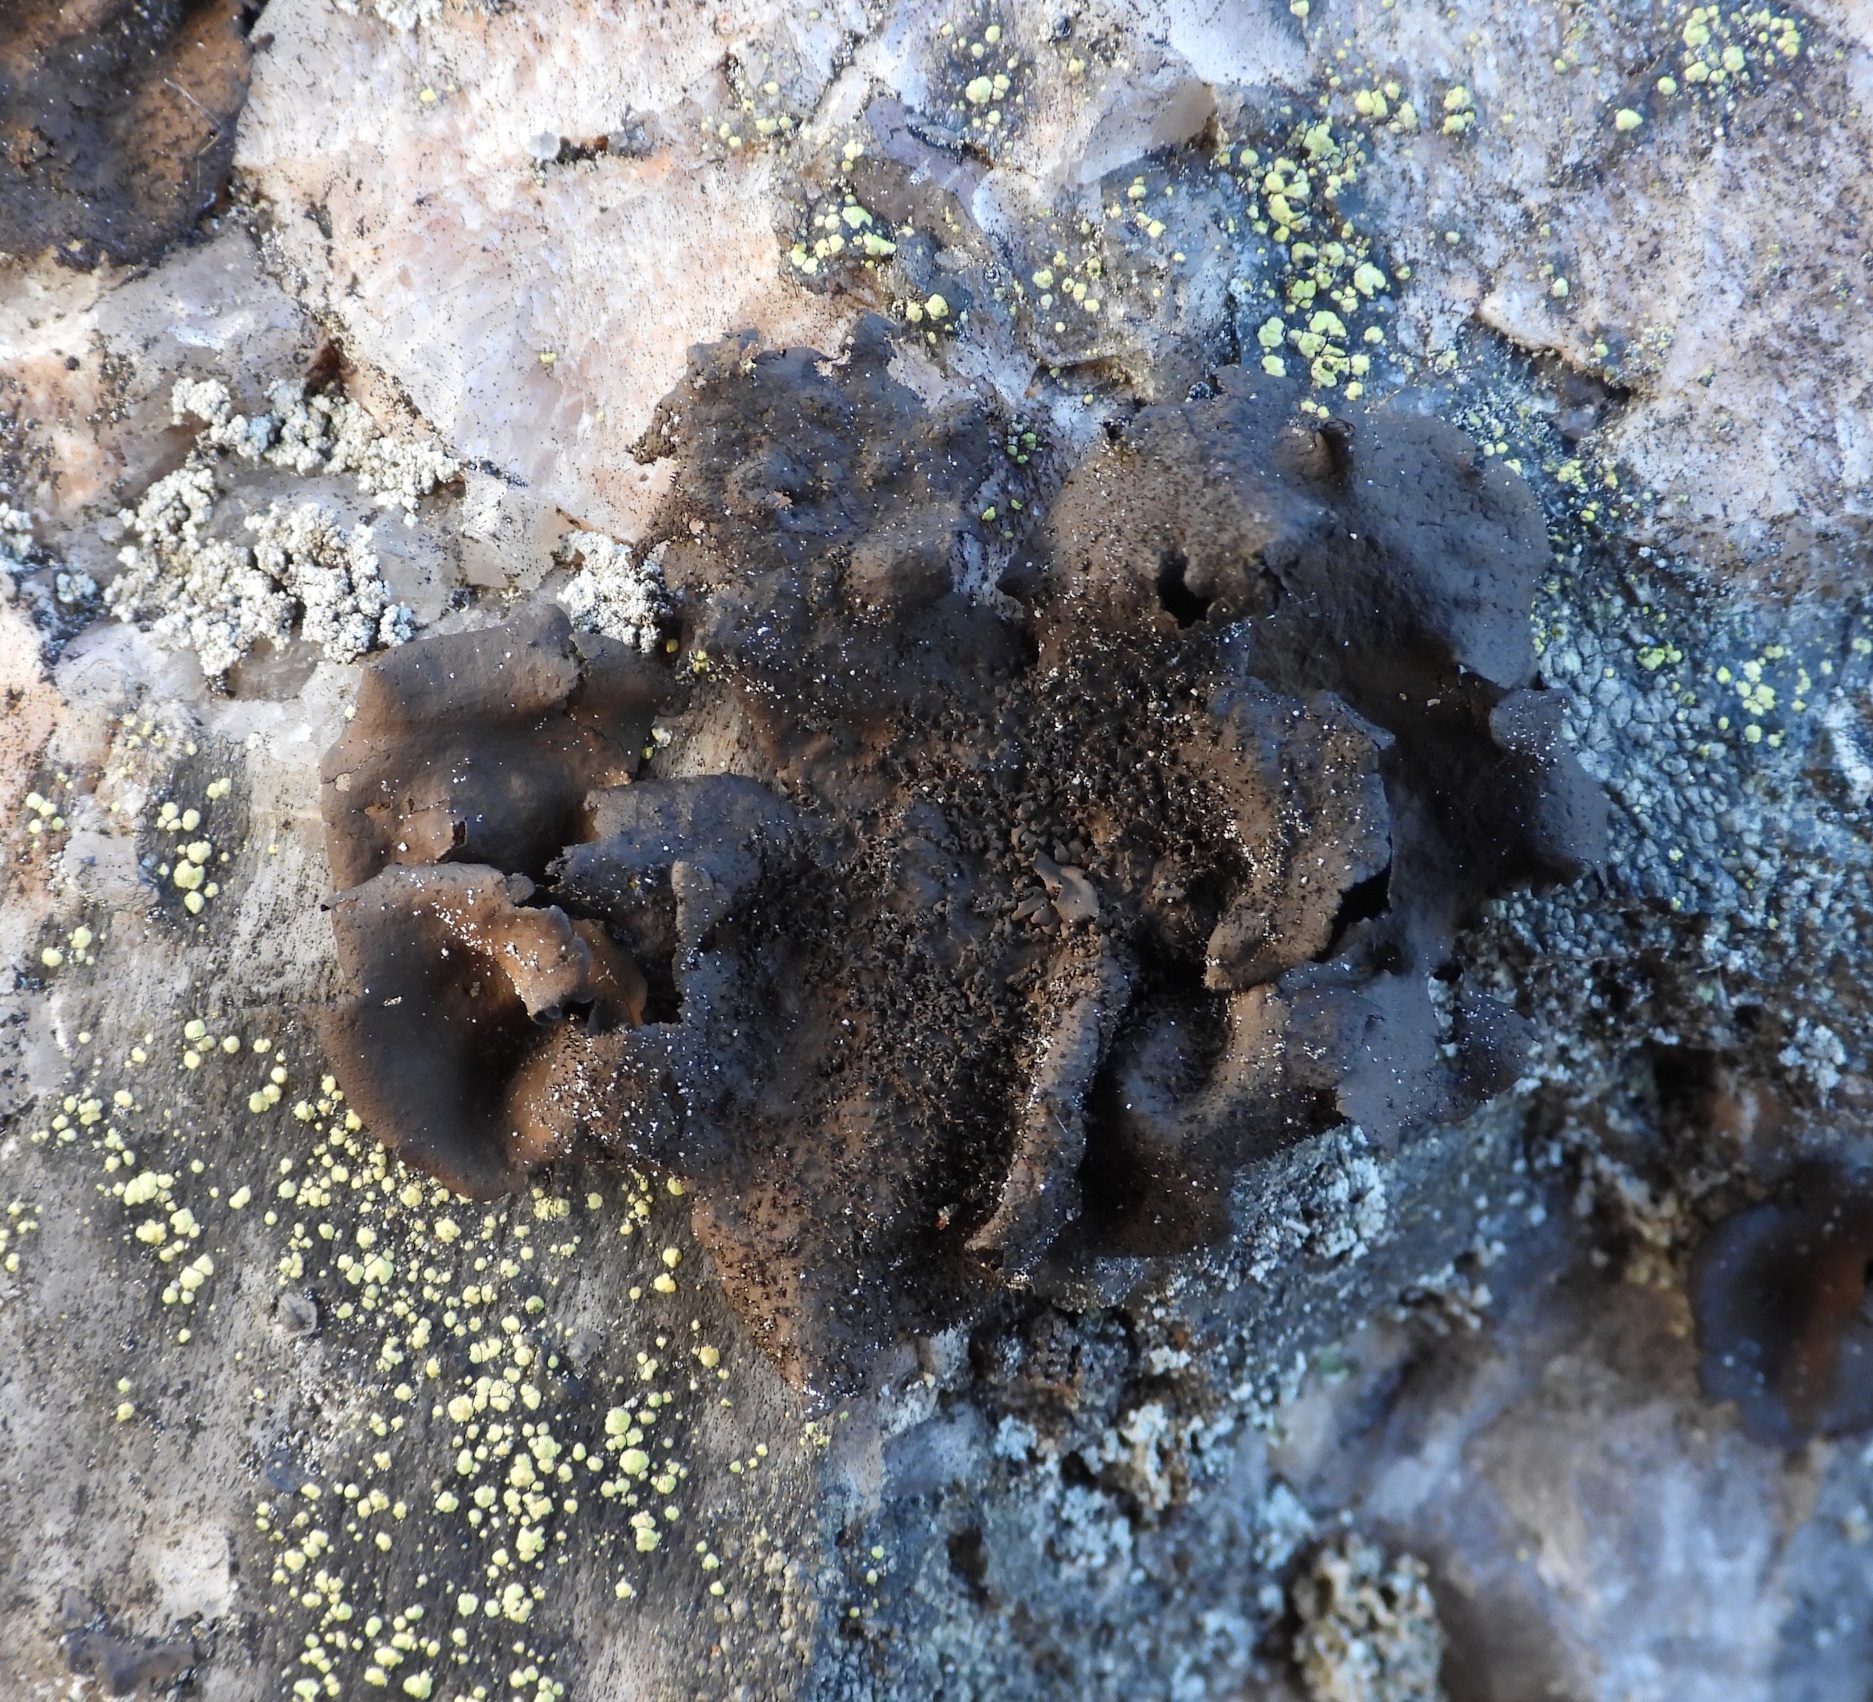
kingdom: Fungi
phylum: Ascomycota
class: Lecanoromycetes
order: Umbilicariales
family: Umbilicariaceae
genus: Umbilicaria
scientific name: Umbilicaria deusta
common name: Peppered rock tripe
